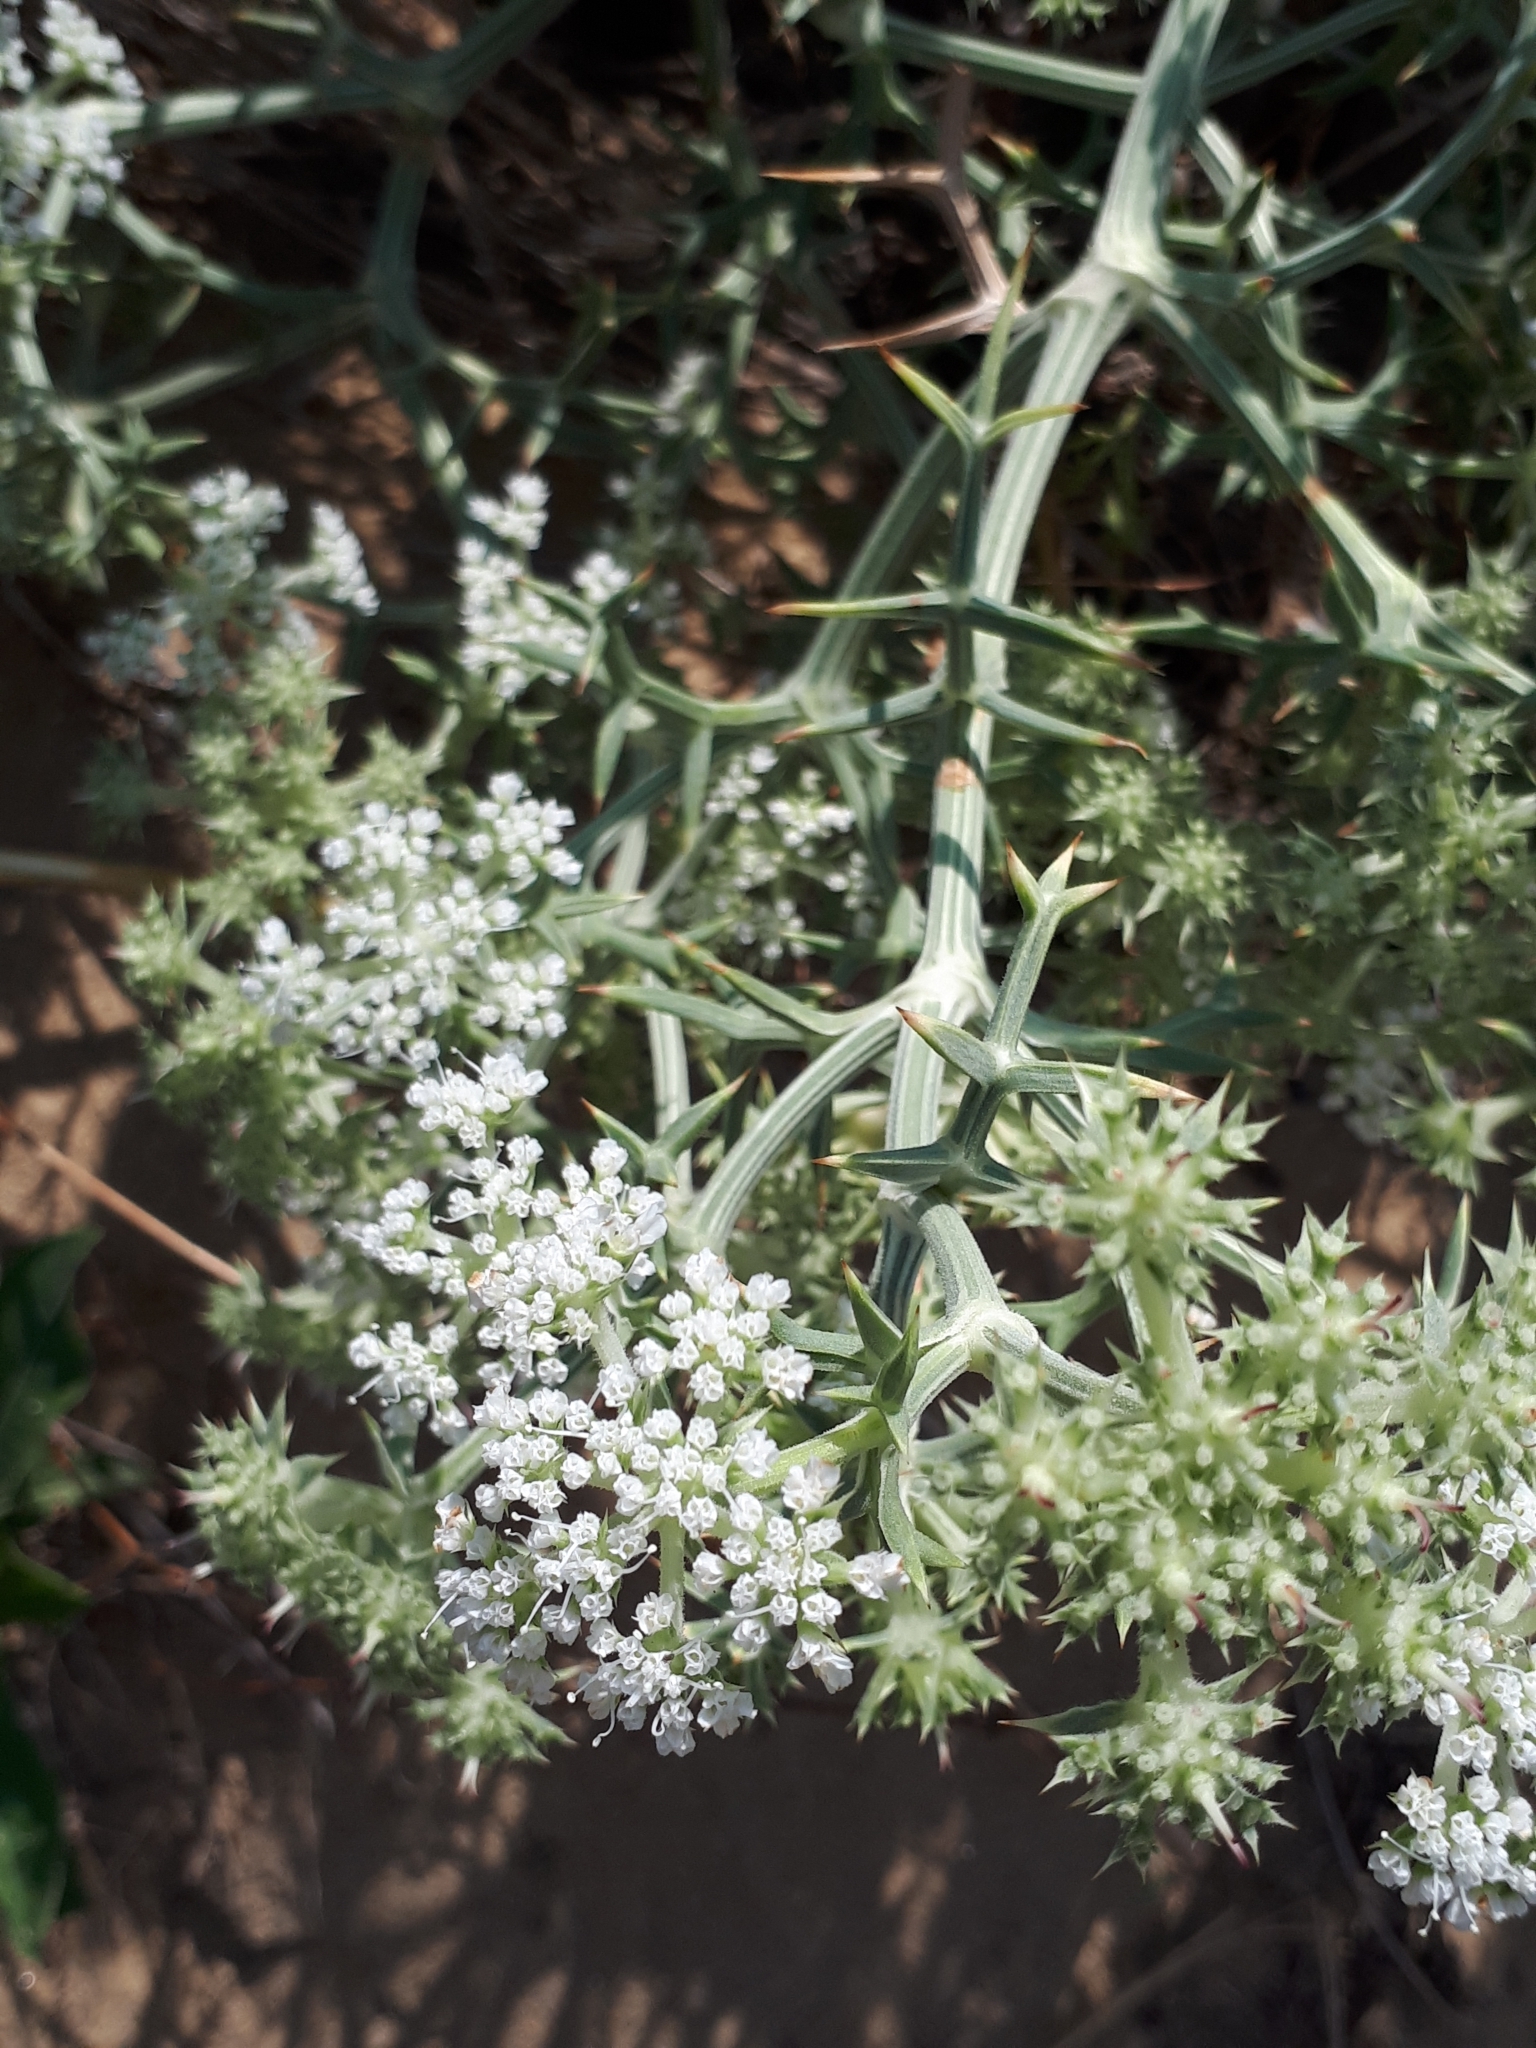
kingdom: Plantae
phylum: Tracheophyta
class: Magnoliopsida
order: Apiales
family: Apiaceae
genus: Echinophora
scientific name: Echinophora spinosa
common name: Prickly samphire
